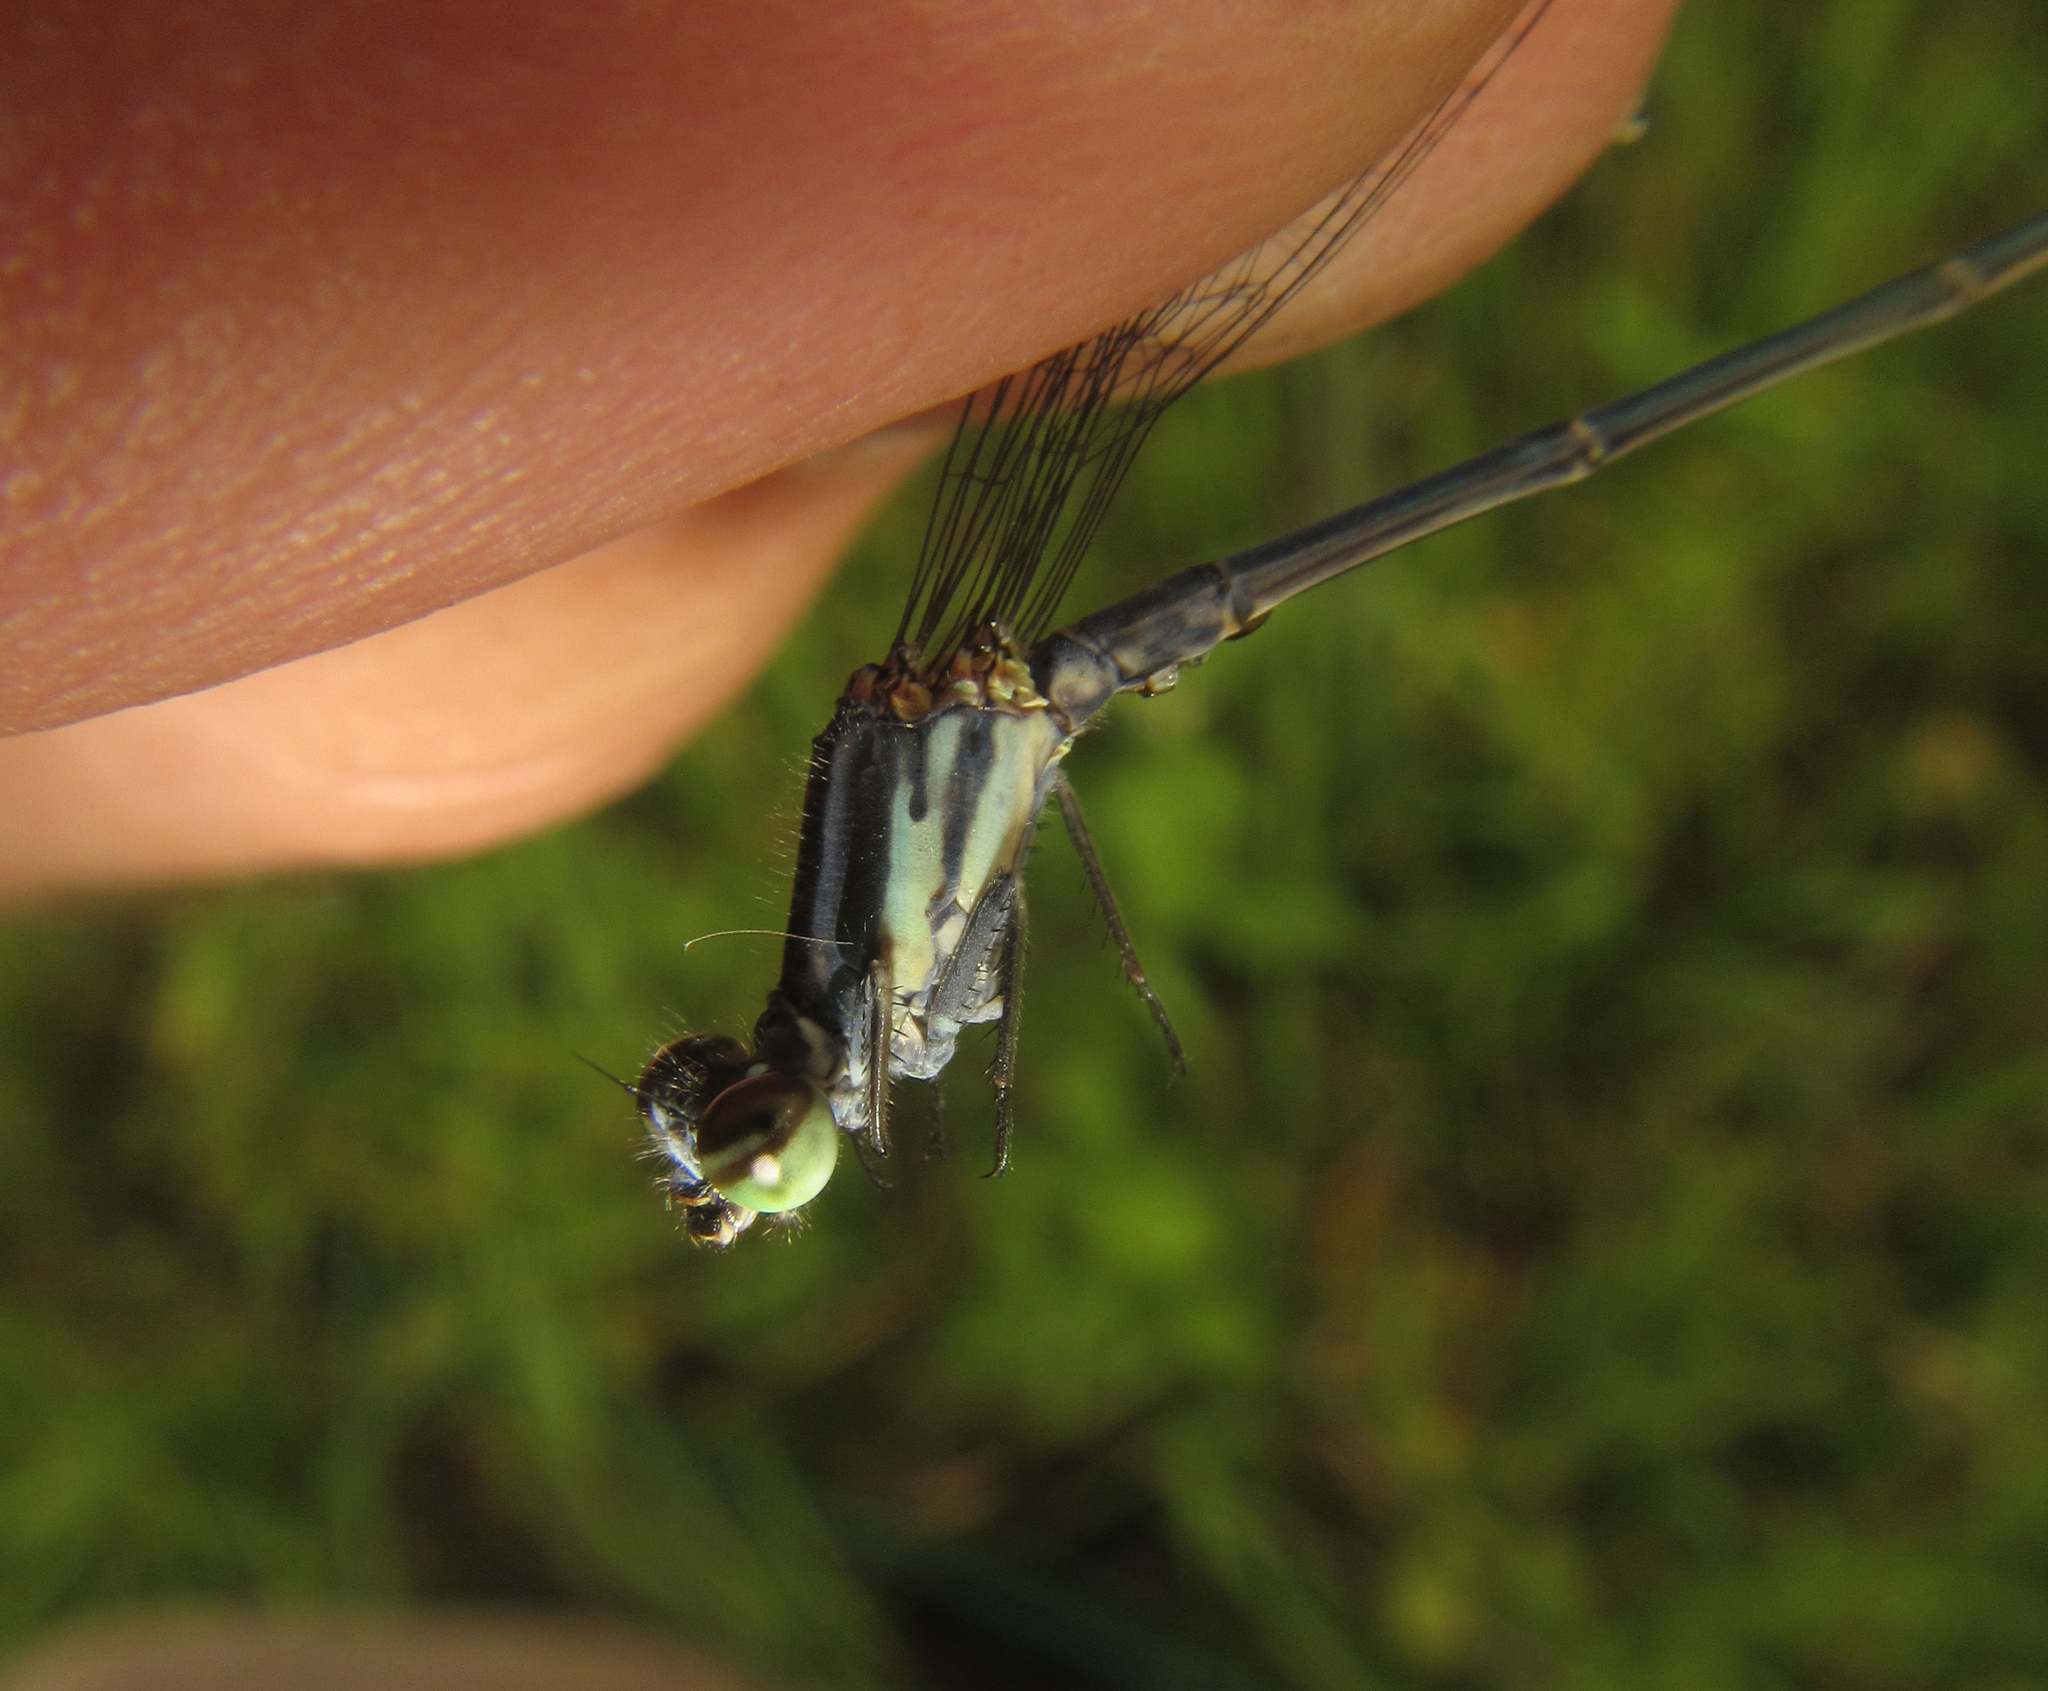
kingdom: Animalia
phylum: Arthropoda
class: Insecta
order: Odonata
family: Coenagrionidae
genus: Pseudagrion
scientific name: Pseudagrion kersteni
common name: Powder-faced sprite
